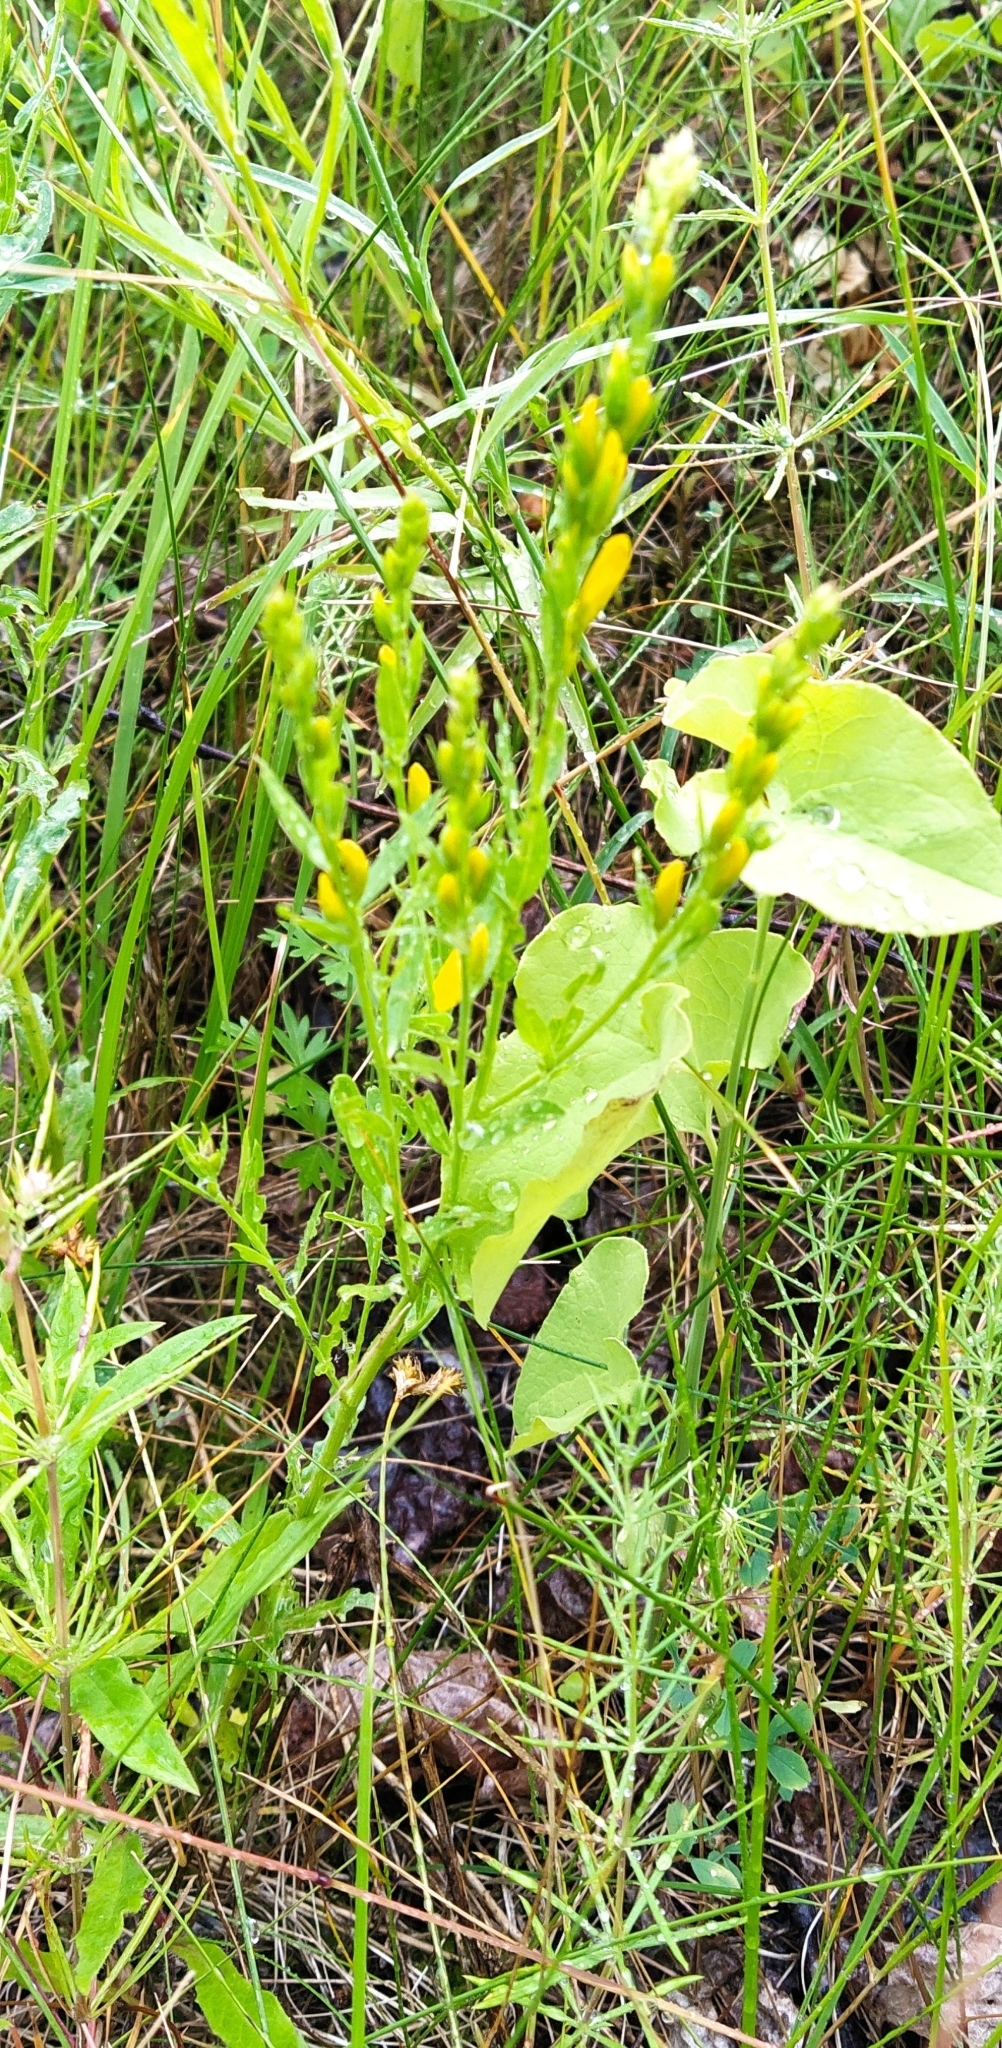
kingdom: Plantae
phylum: Tracheophyta
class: Magnoliopsida
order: Fabales
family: Fabaceae
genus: Genista
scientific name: Genista tinctoria
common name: Dyer's greenweed
